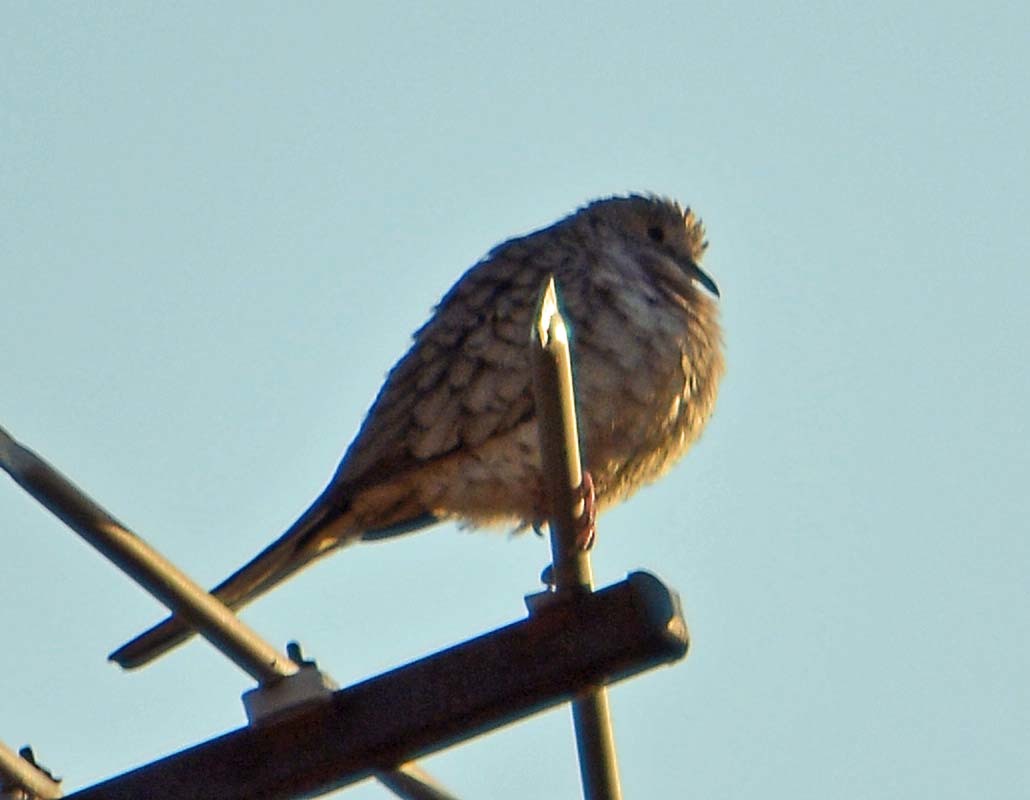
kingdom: Animalia
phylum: Chordata
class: Aves
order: Columbiformes
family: Columbidae
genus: Columbina
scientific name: Columbina inca
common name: Inca dove
